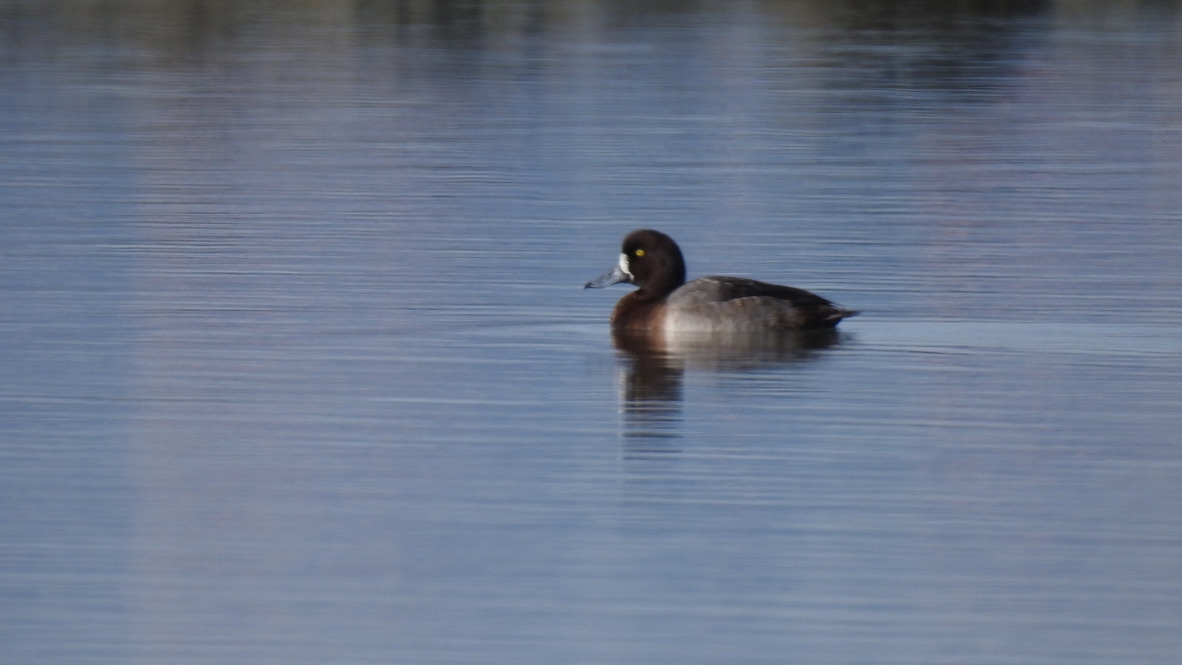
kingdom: Animalia
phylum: Chordata
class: Aves
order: Anseriformes
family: Anatidae
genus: Aythya
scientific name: Aythya marila
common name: Greater scaup
